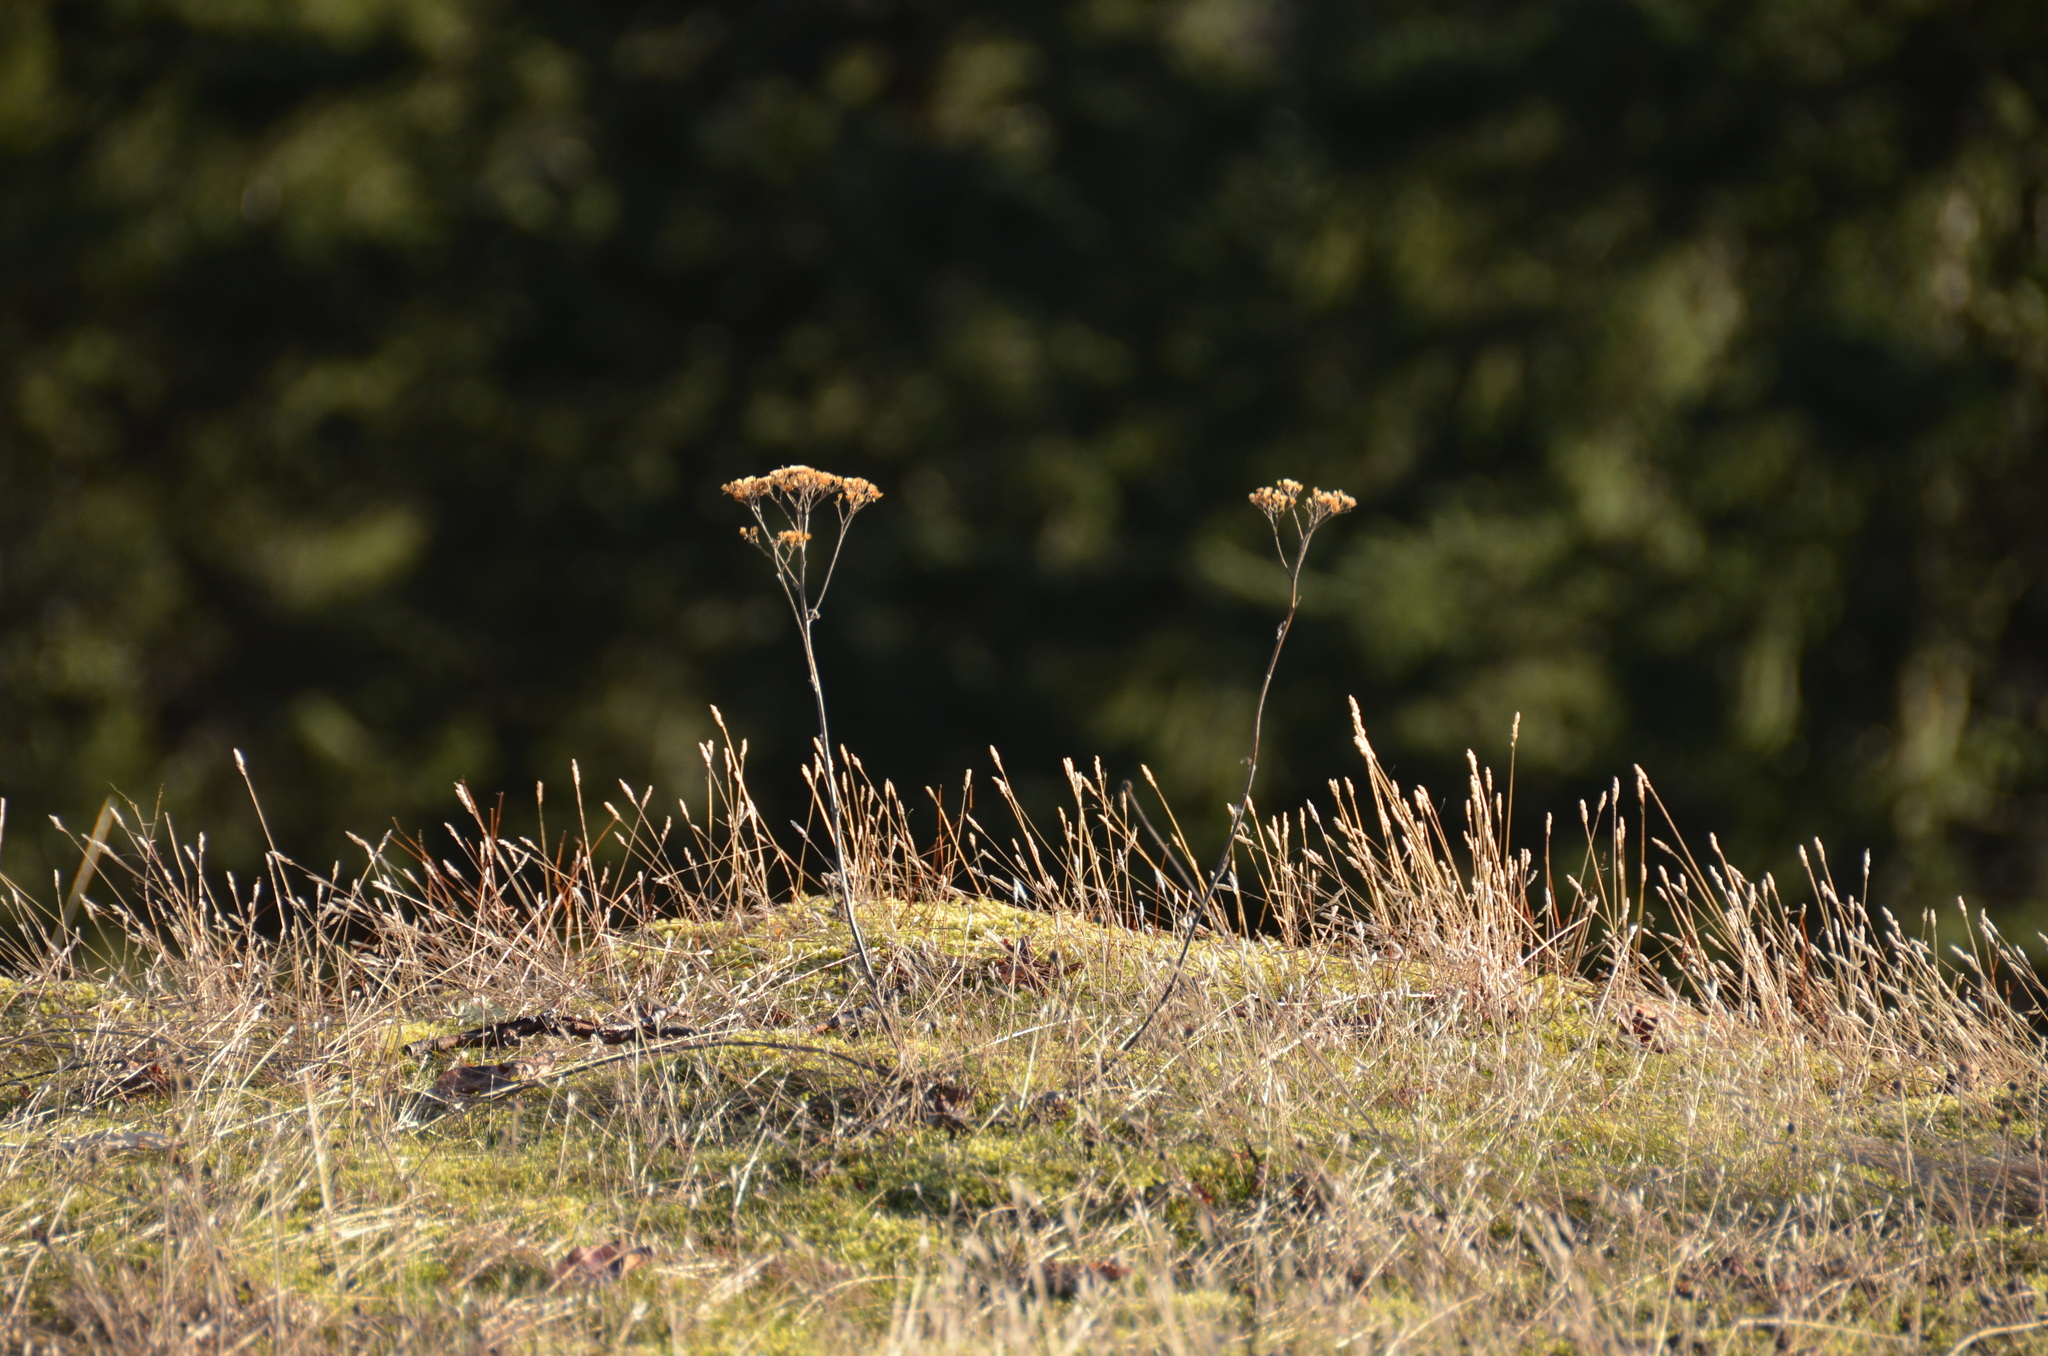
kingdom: Plantae
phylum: Tracheophyta
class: Magnoliopsida
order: Asterales
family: Asteraceae
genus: Achillea
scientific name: Achillea millefolium
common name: Yarrow
